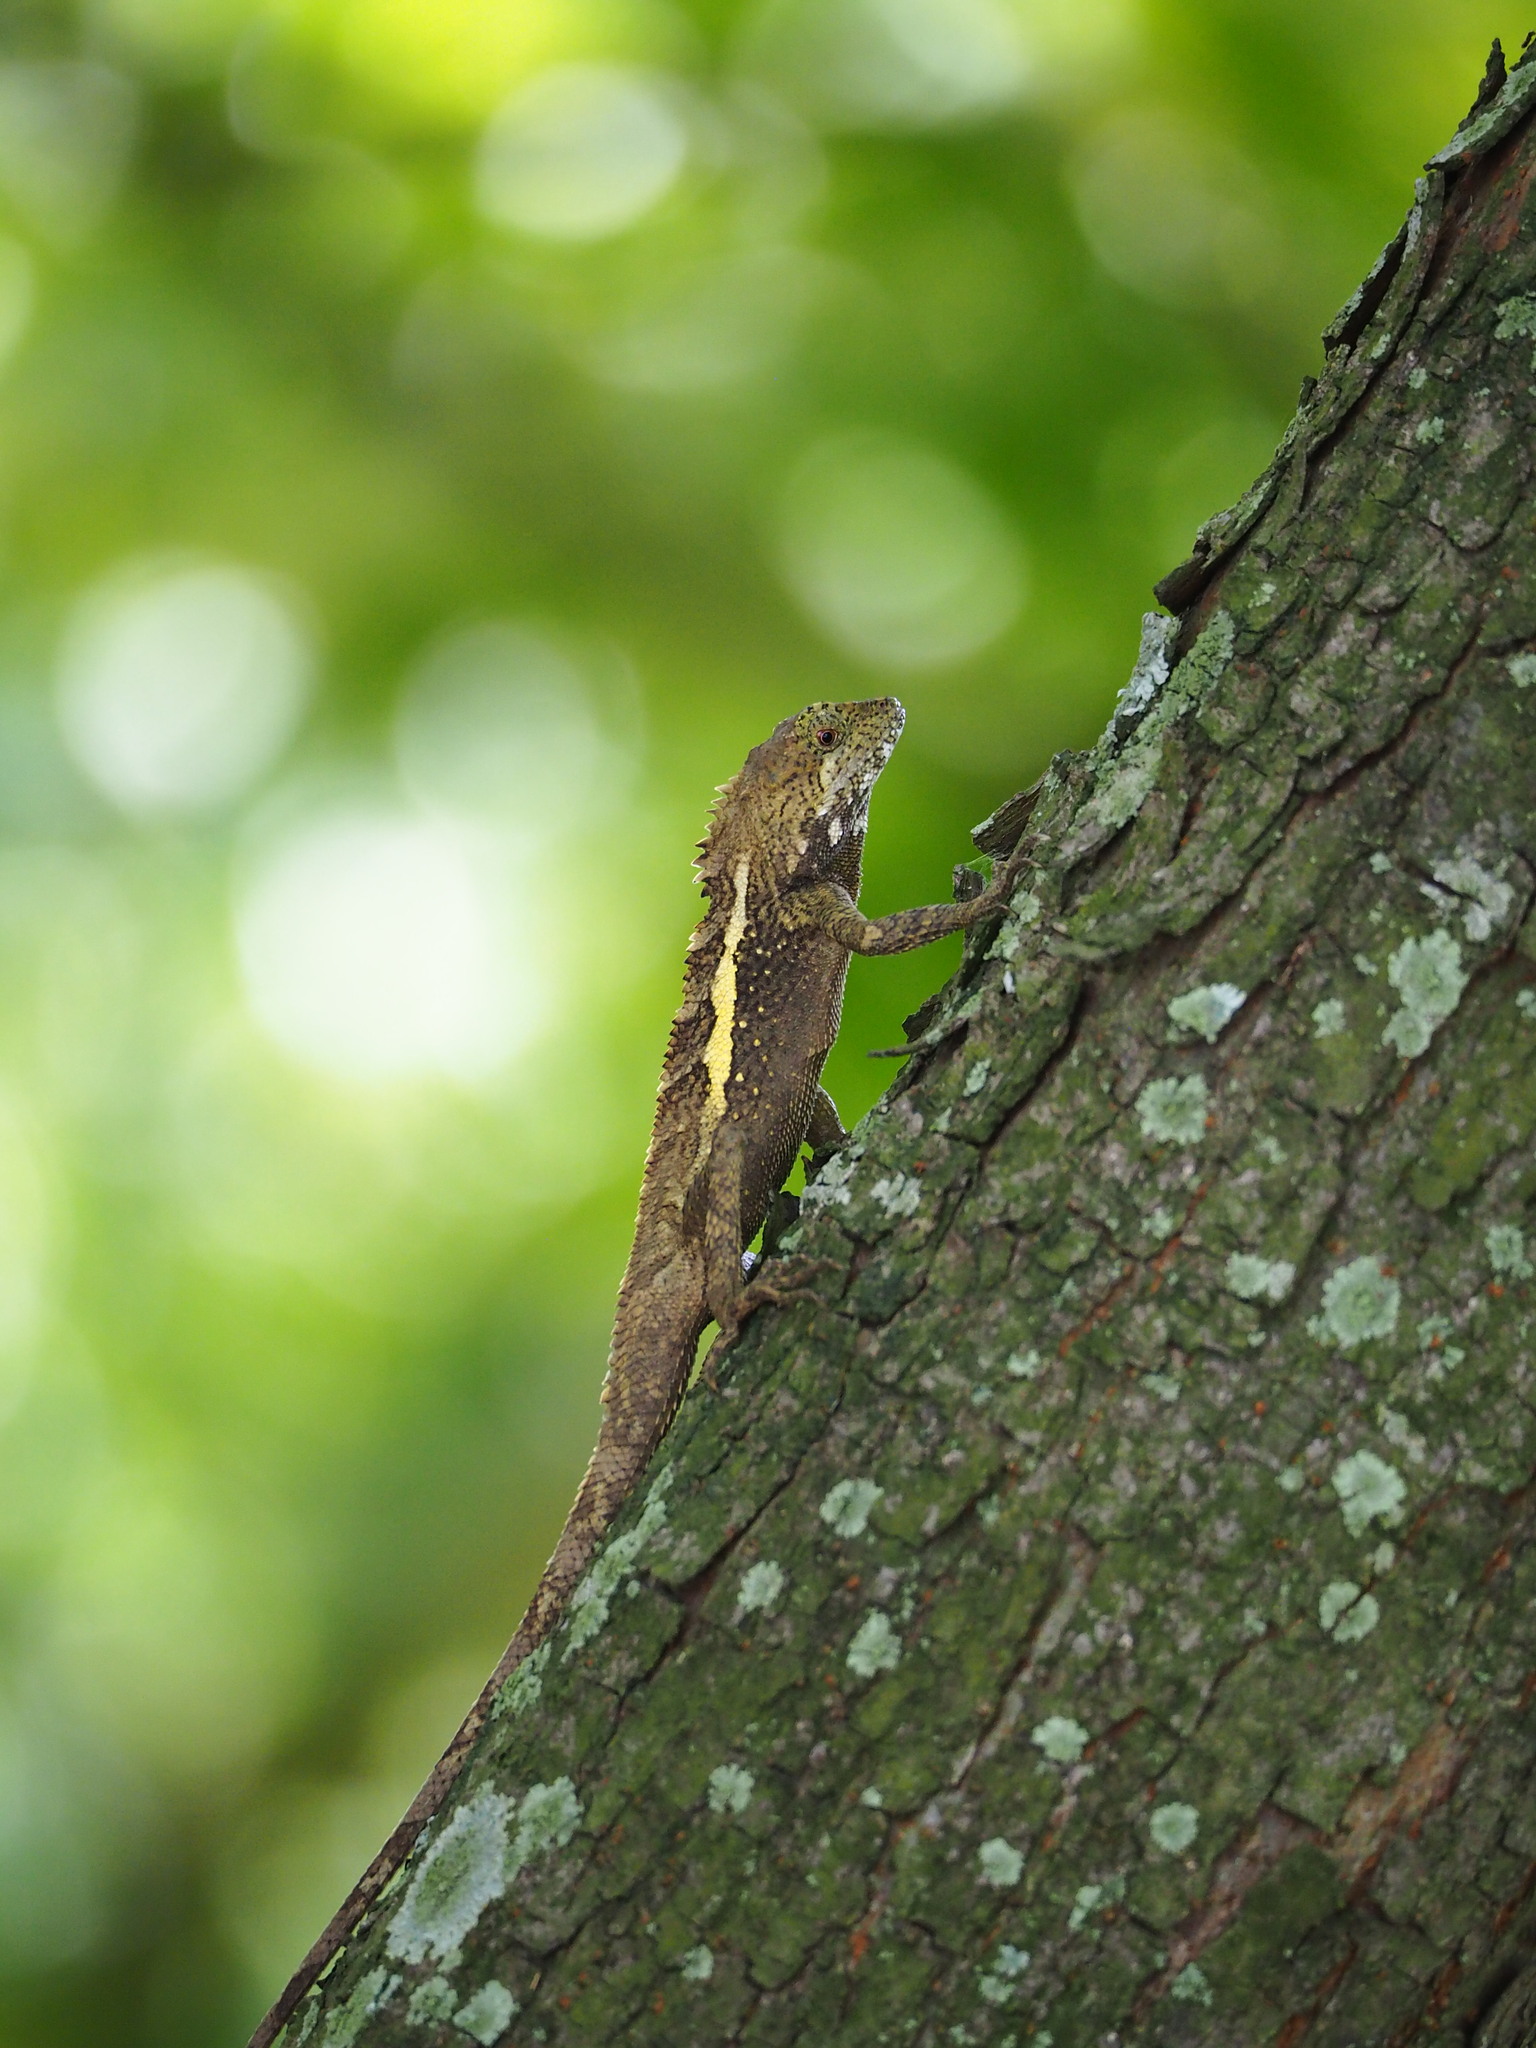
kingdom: Animalia
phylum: Chordata
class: Squamata
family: Agamidae
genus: Diploderma
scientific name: Diploderma swinhonis
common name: Taiwan japalure
